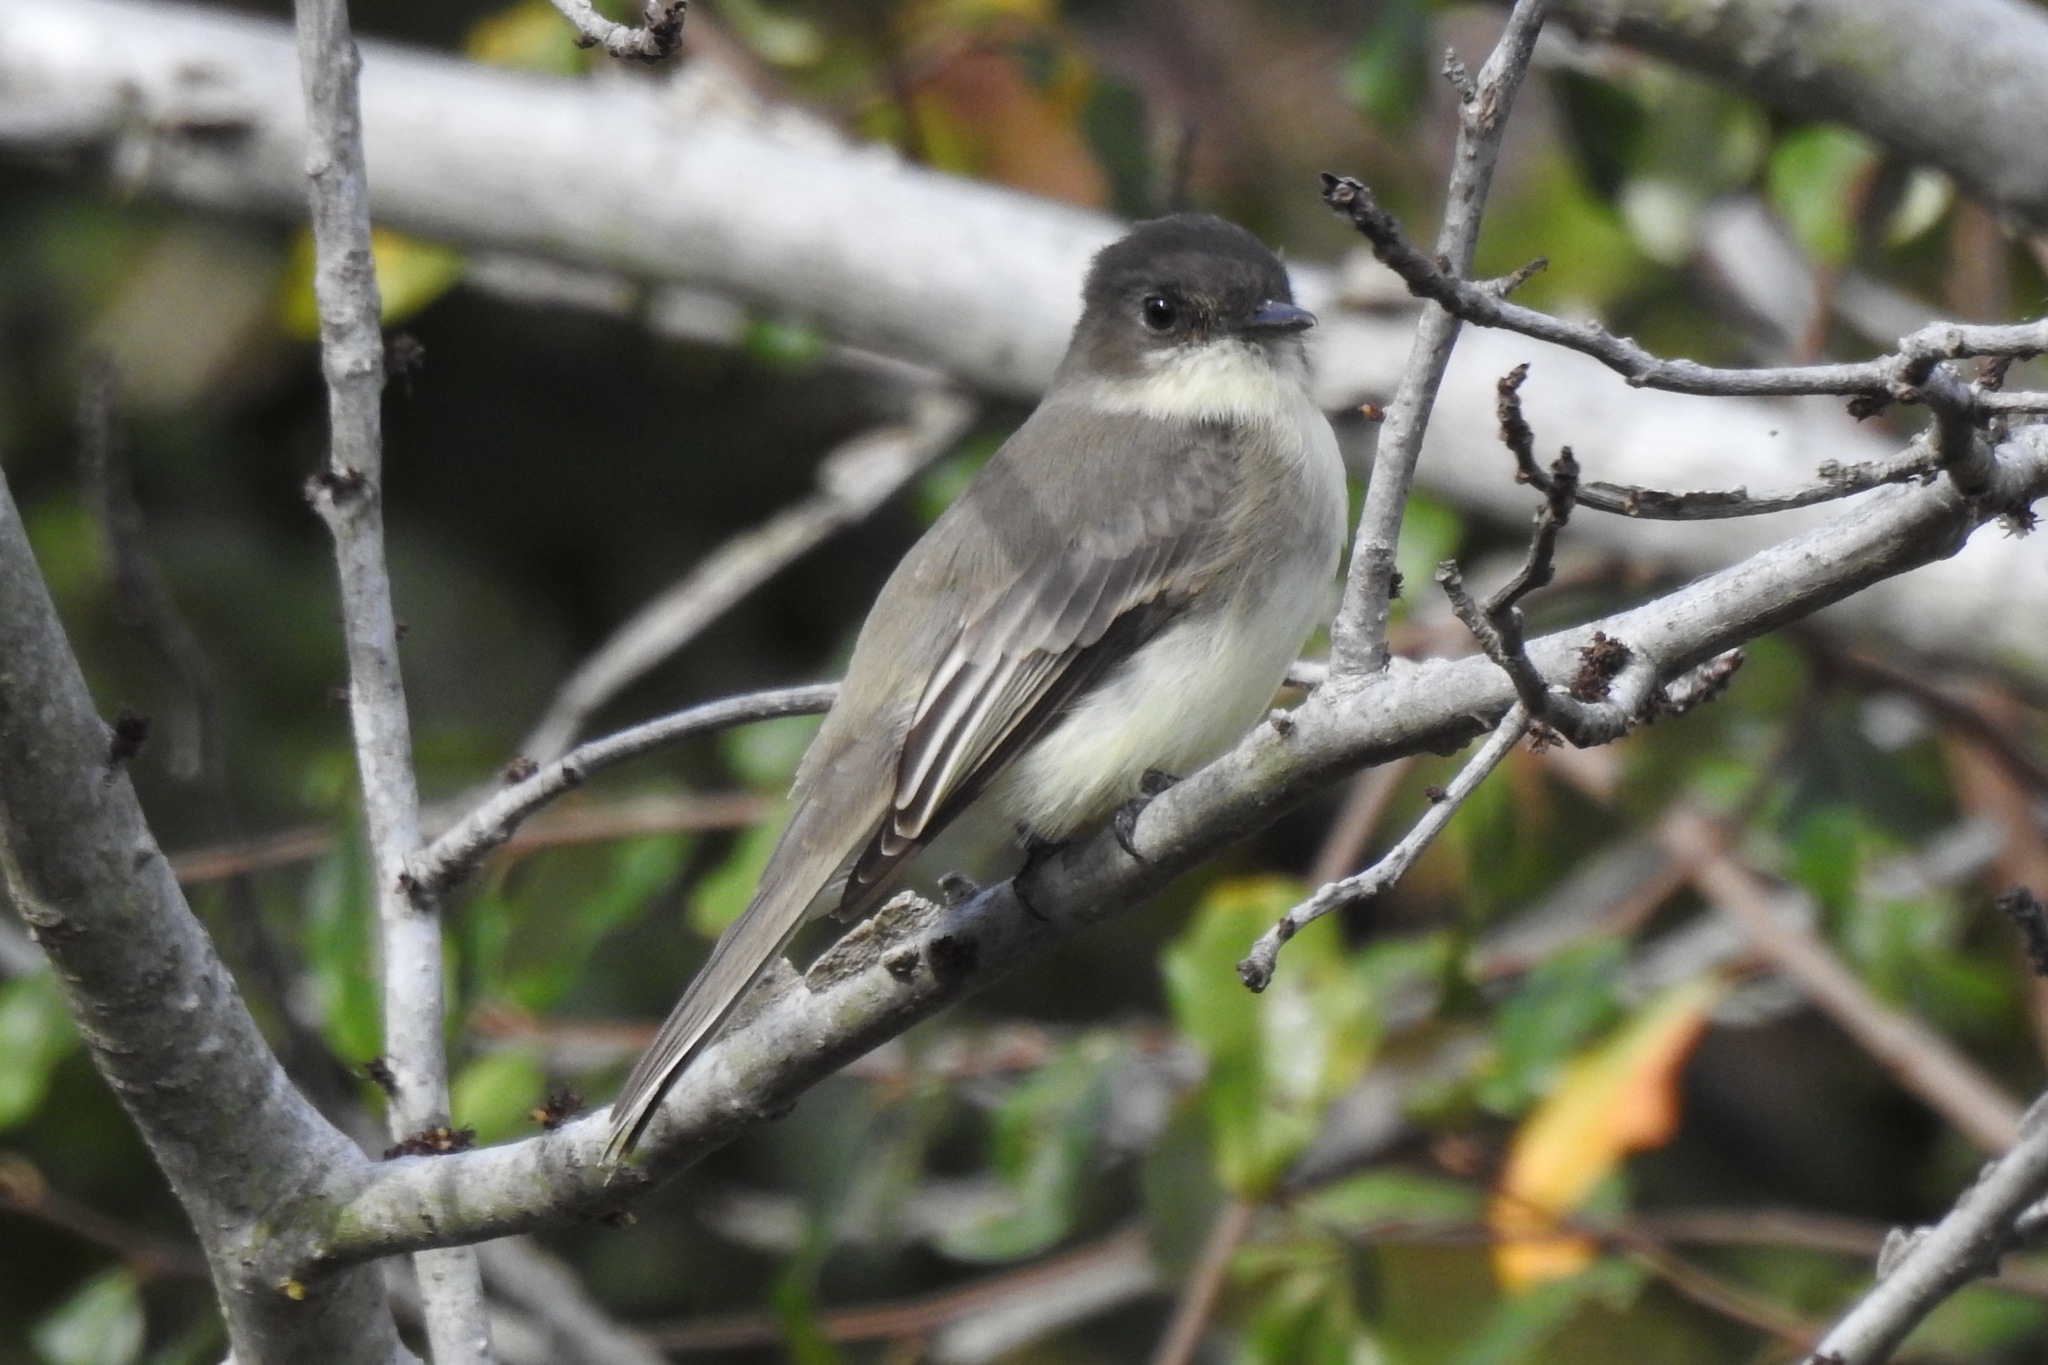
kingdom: Animalia
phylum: Chordata
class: Aves
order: Passeriformes
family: Tyrannidae
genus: Sayornis
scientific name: Sayornis phoebe
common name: Eastern phoebe
